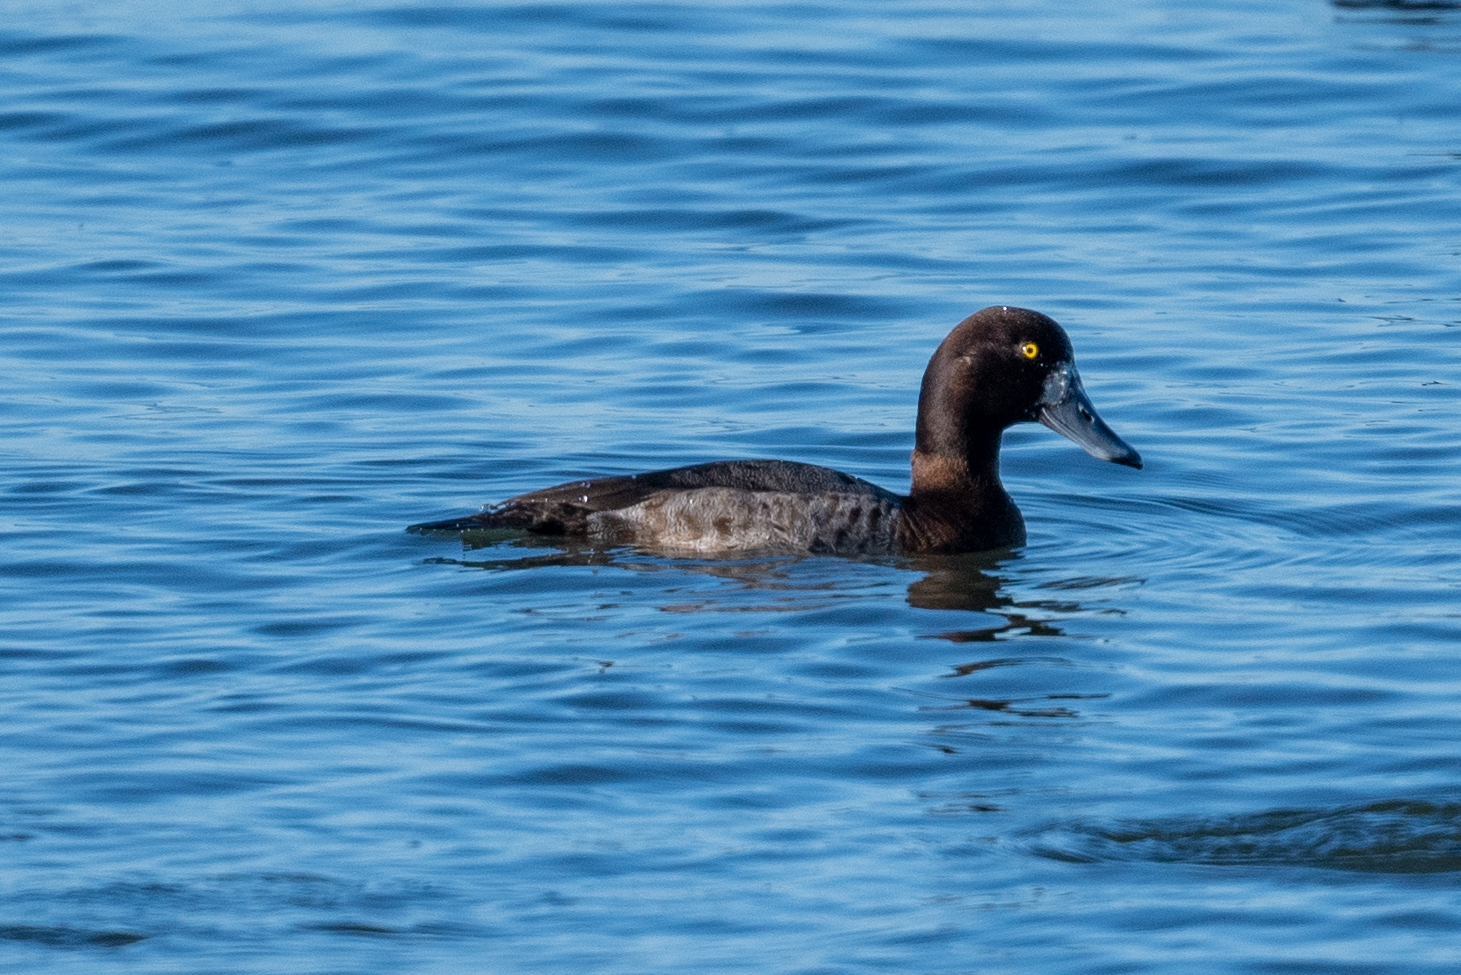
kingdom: Animalia
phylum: Chordata
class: Aves
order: Anseriformes
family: Anatidae
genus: Aythya
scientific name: Aythya marila
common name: Greater scaup
